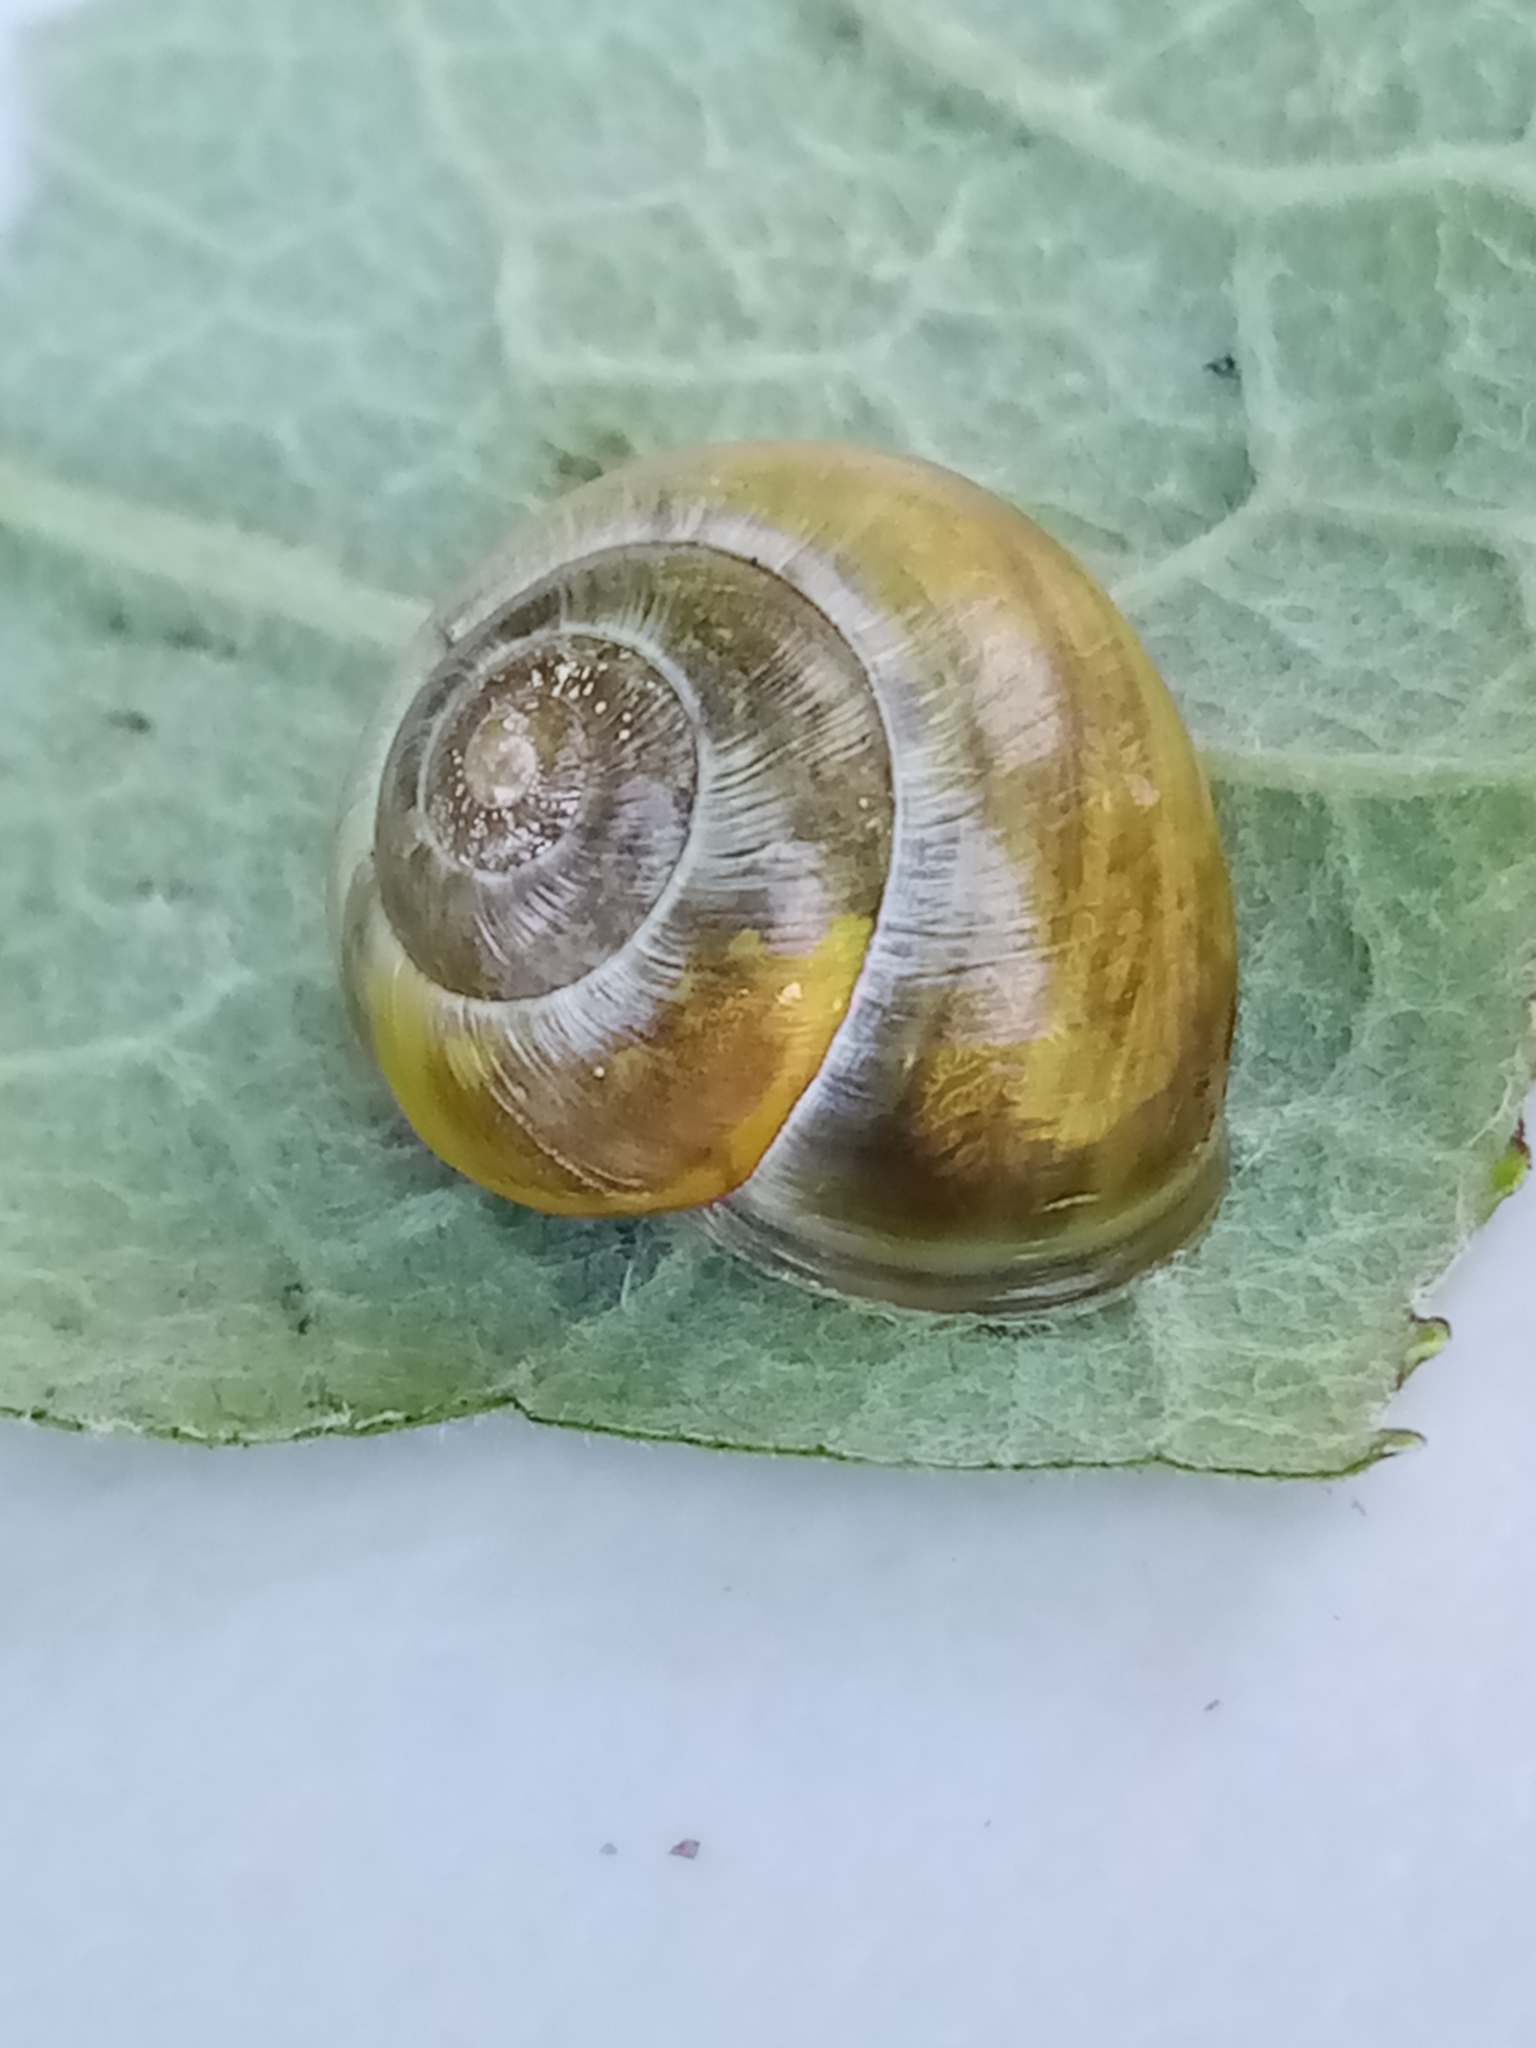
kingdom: Animalia
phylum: Mollusca
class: Gastropoda
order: Stylommatophora
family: Helicidae
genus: Cepaea
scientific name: Cepaea nemoralis
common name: Grovesnail
